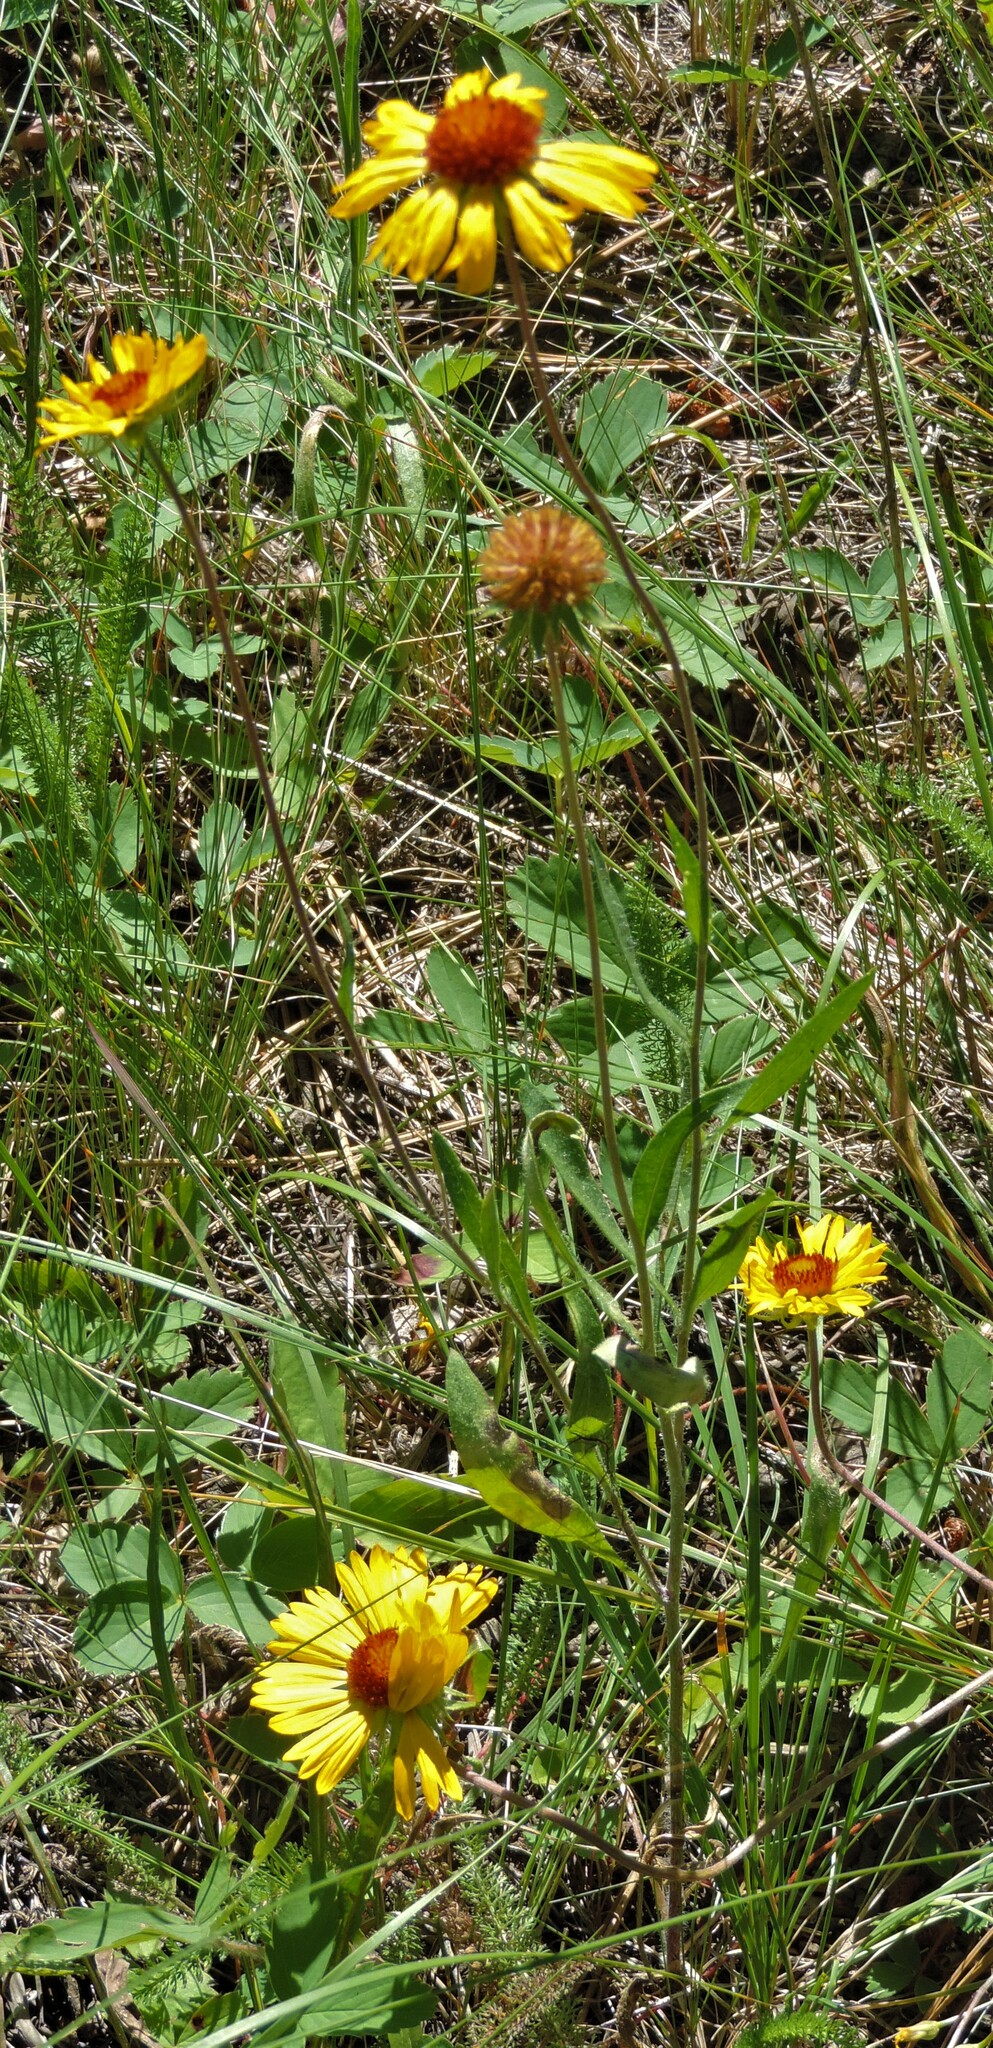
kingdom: Plantae
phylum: Tracheophyta
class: Magnoliopsida
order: Asterales
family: Asteraceae
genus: Gaillardia
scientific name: Gaillardia aristata
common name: Blanket-flower
